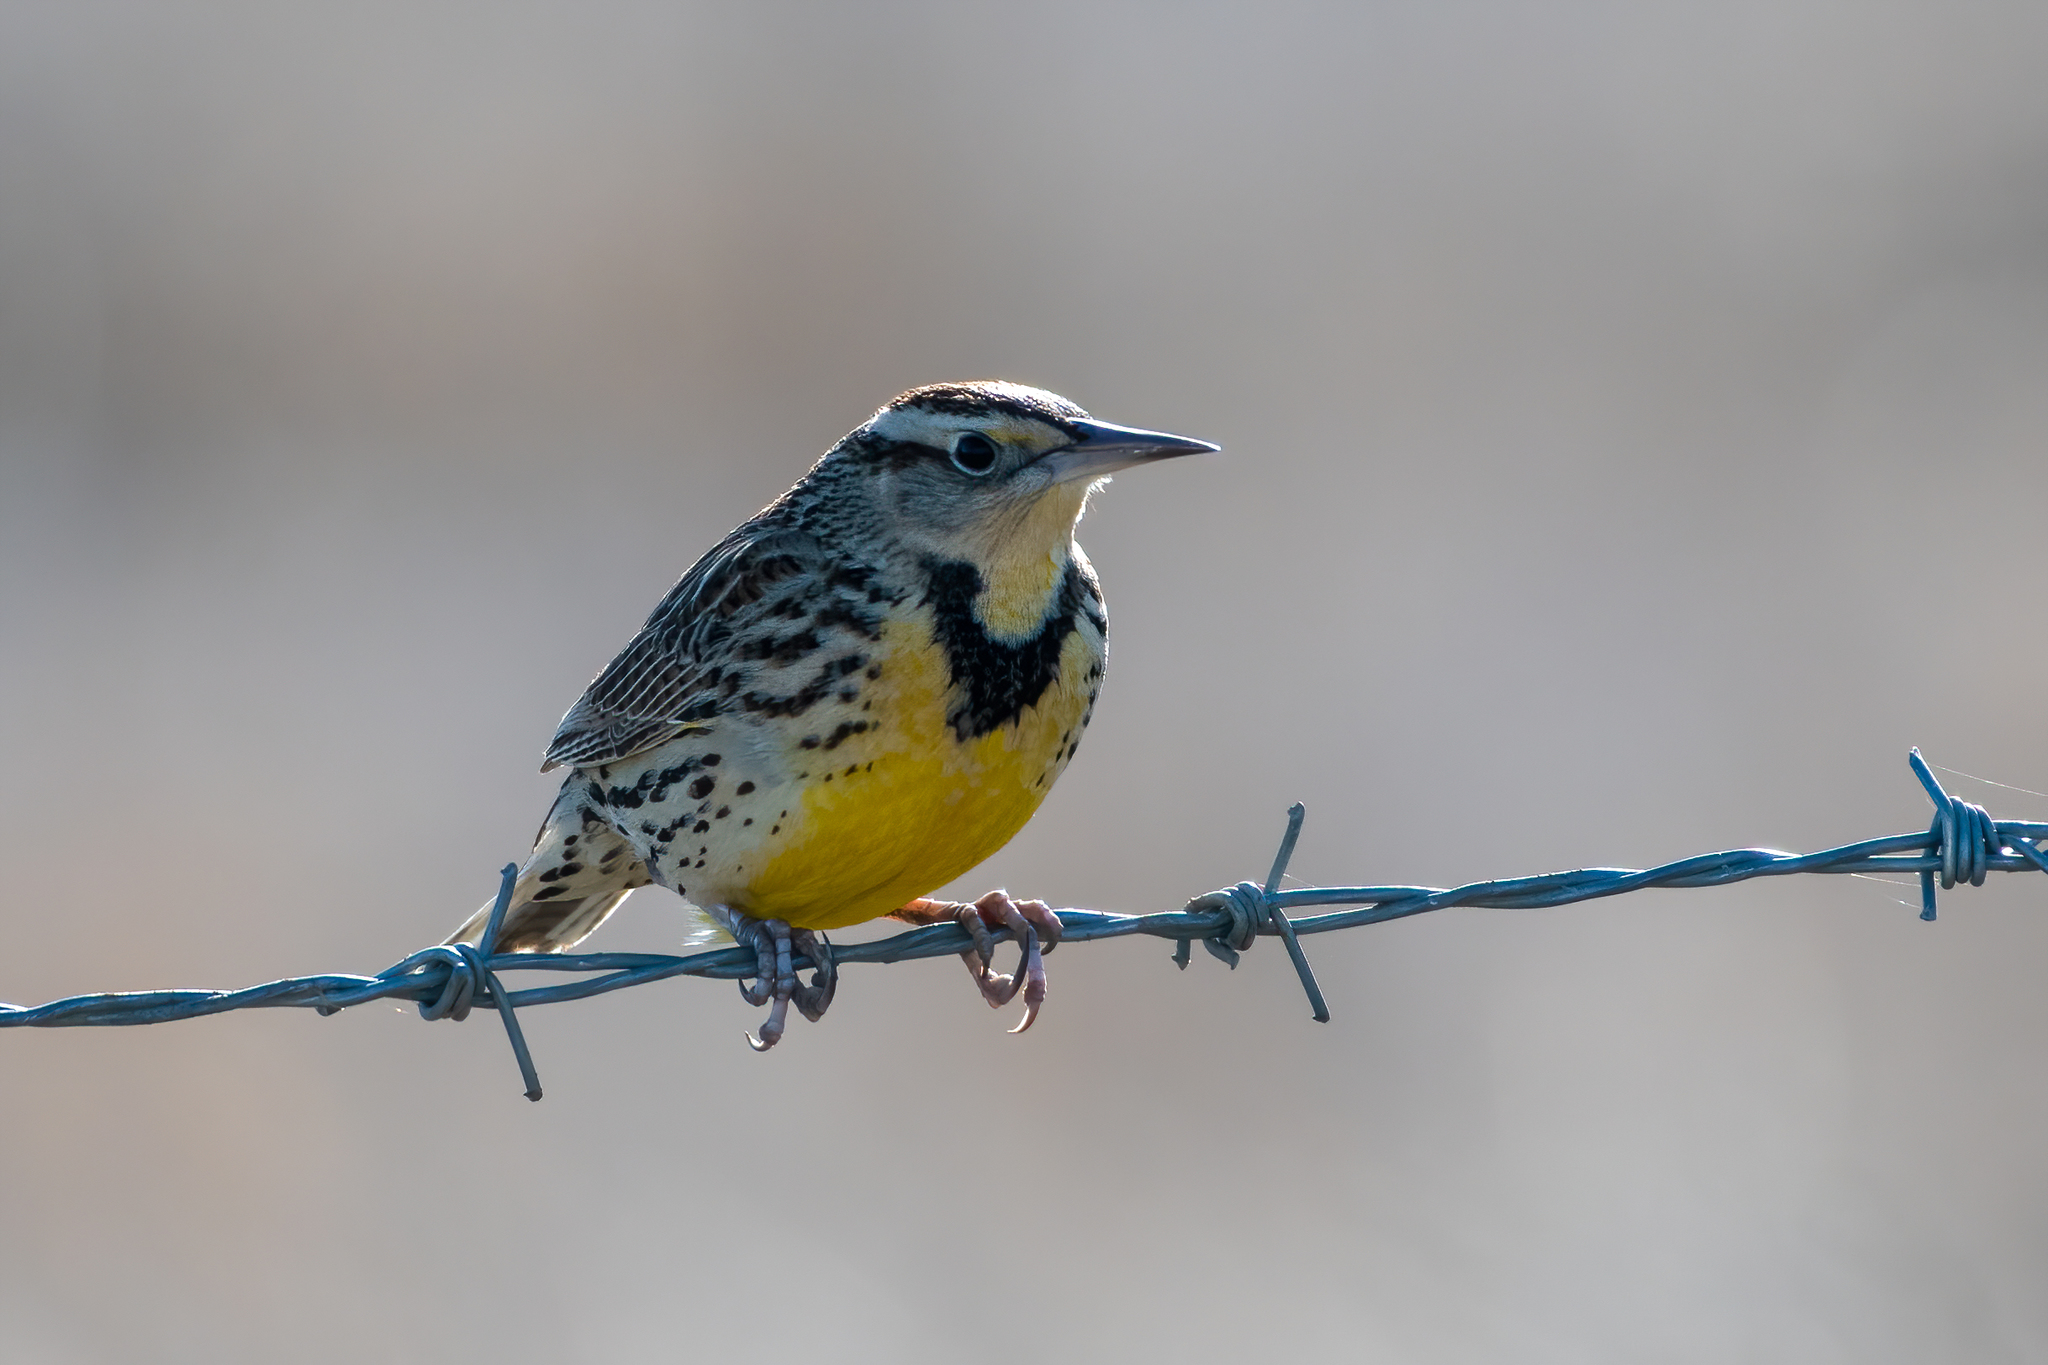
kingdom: Animalia
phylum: Chordata
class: Aves
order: Passeriformes
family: Icteridae
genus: Sturnella
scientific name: Sturnella neglecta
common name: Western meadowlark
